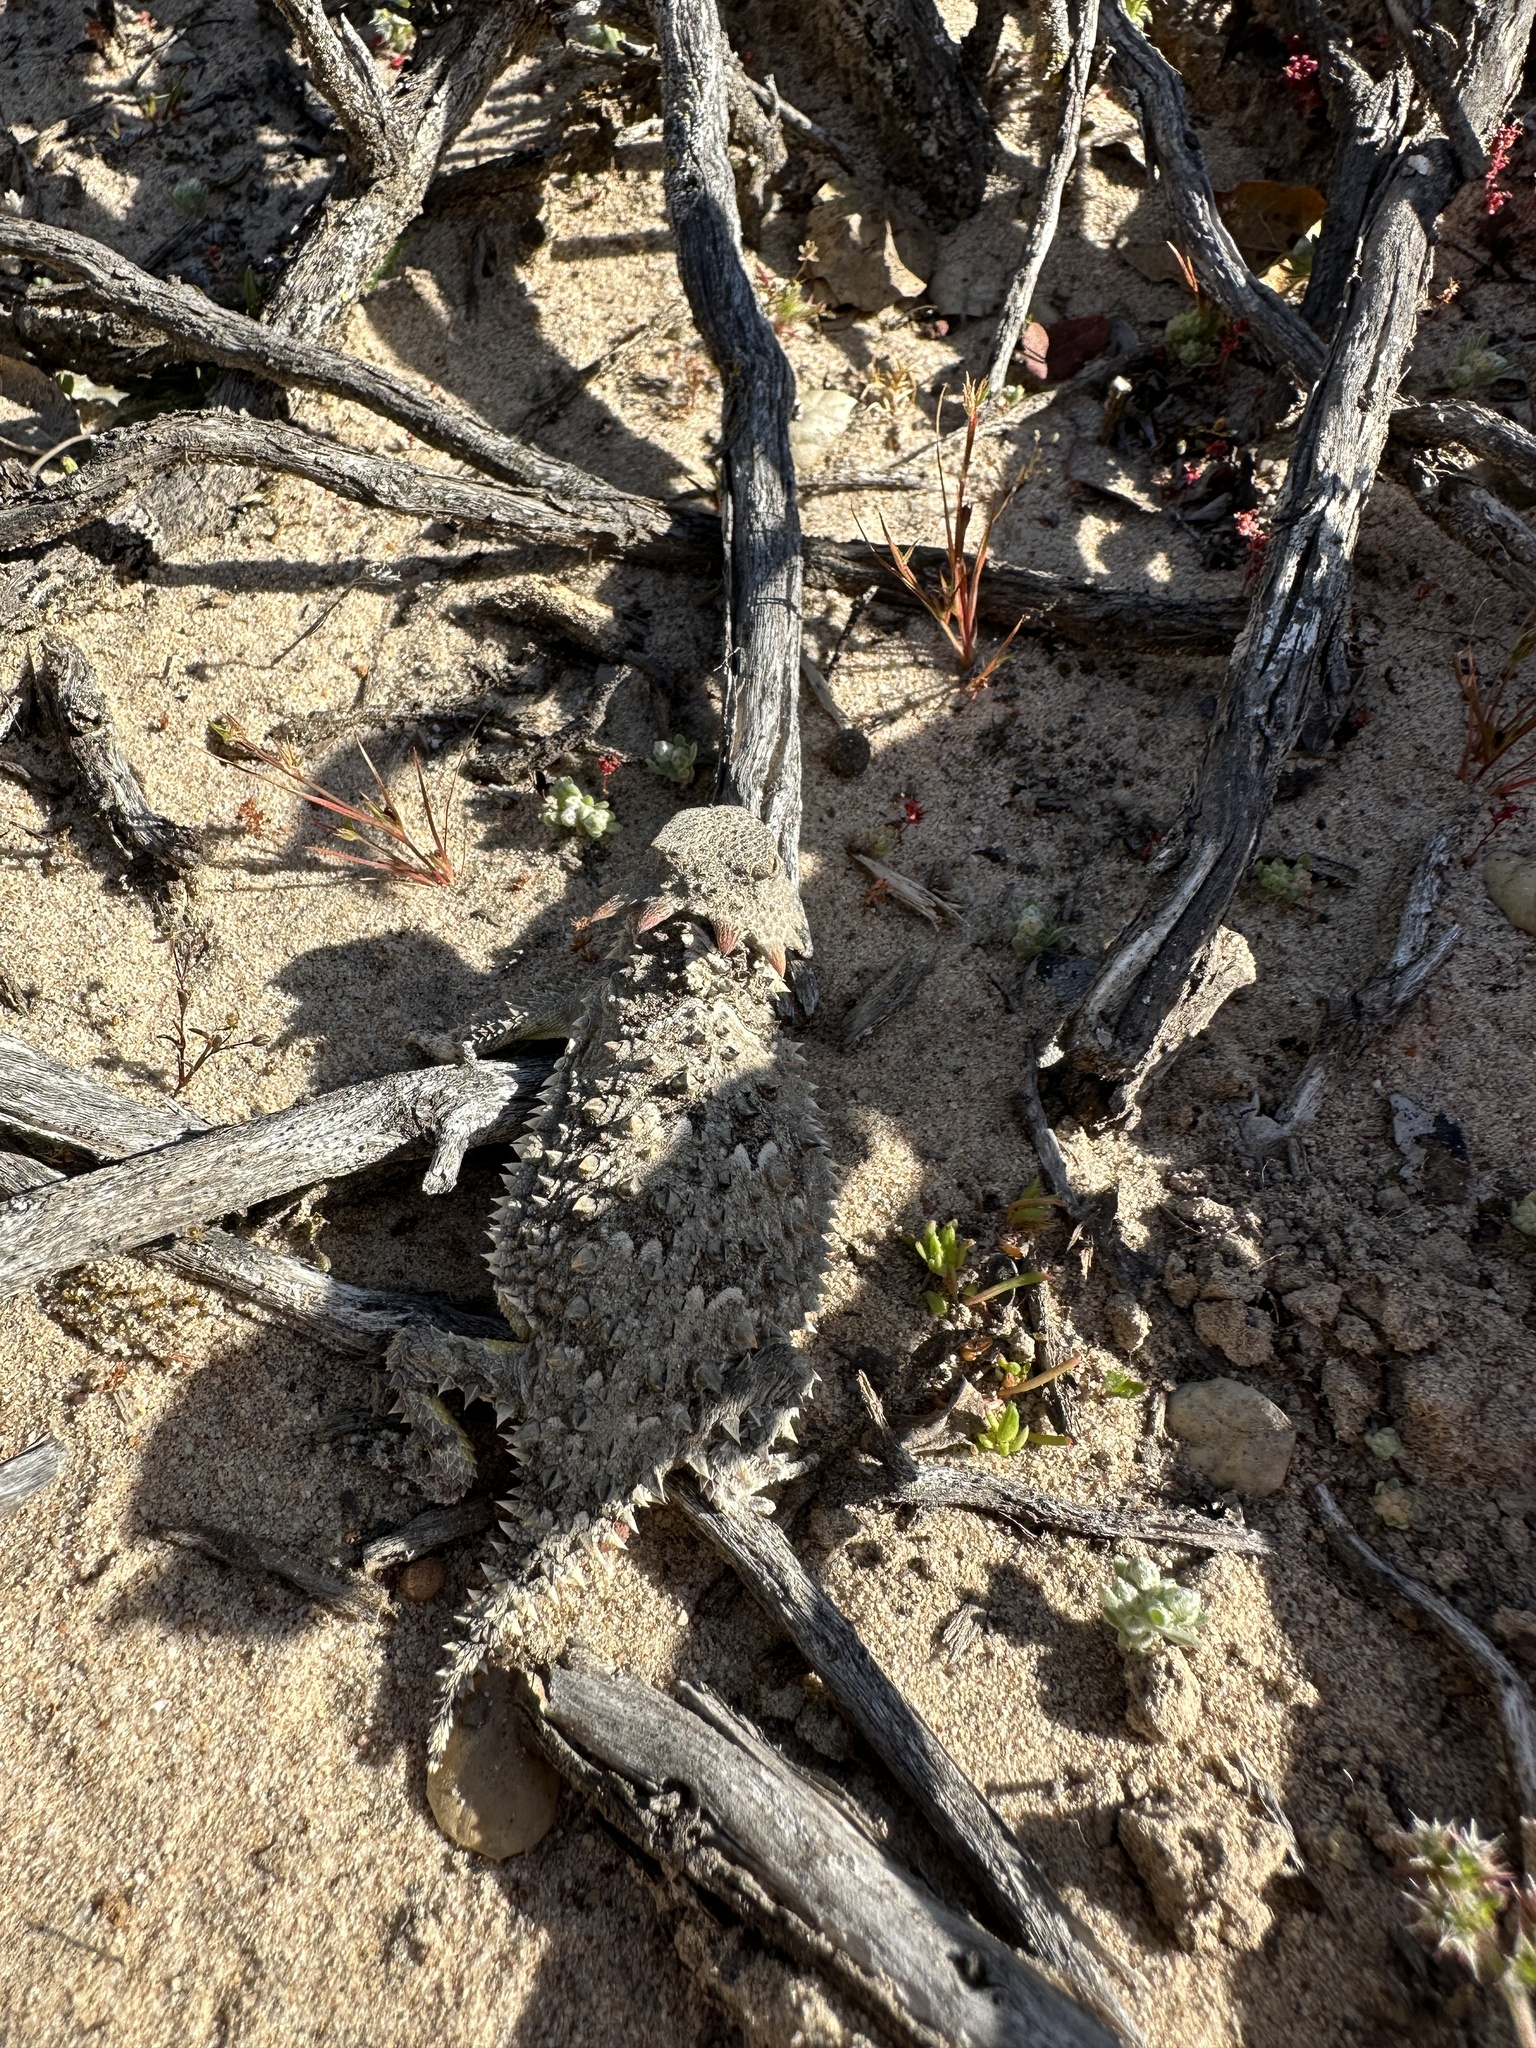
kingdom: Animalia
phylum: Chordata
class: Squamata
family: Phrynosomatidae
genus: Phrynosoma
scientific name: Phrynosoma blainvillii
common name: San diego horned lizard
